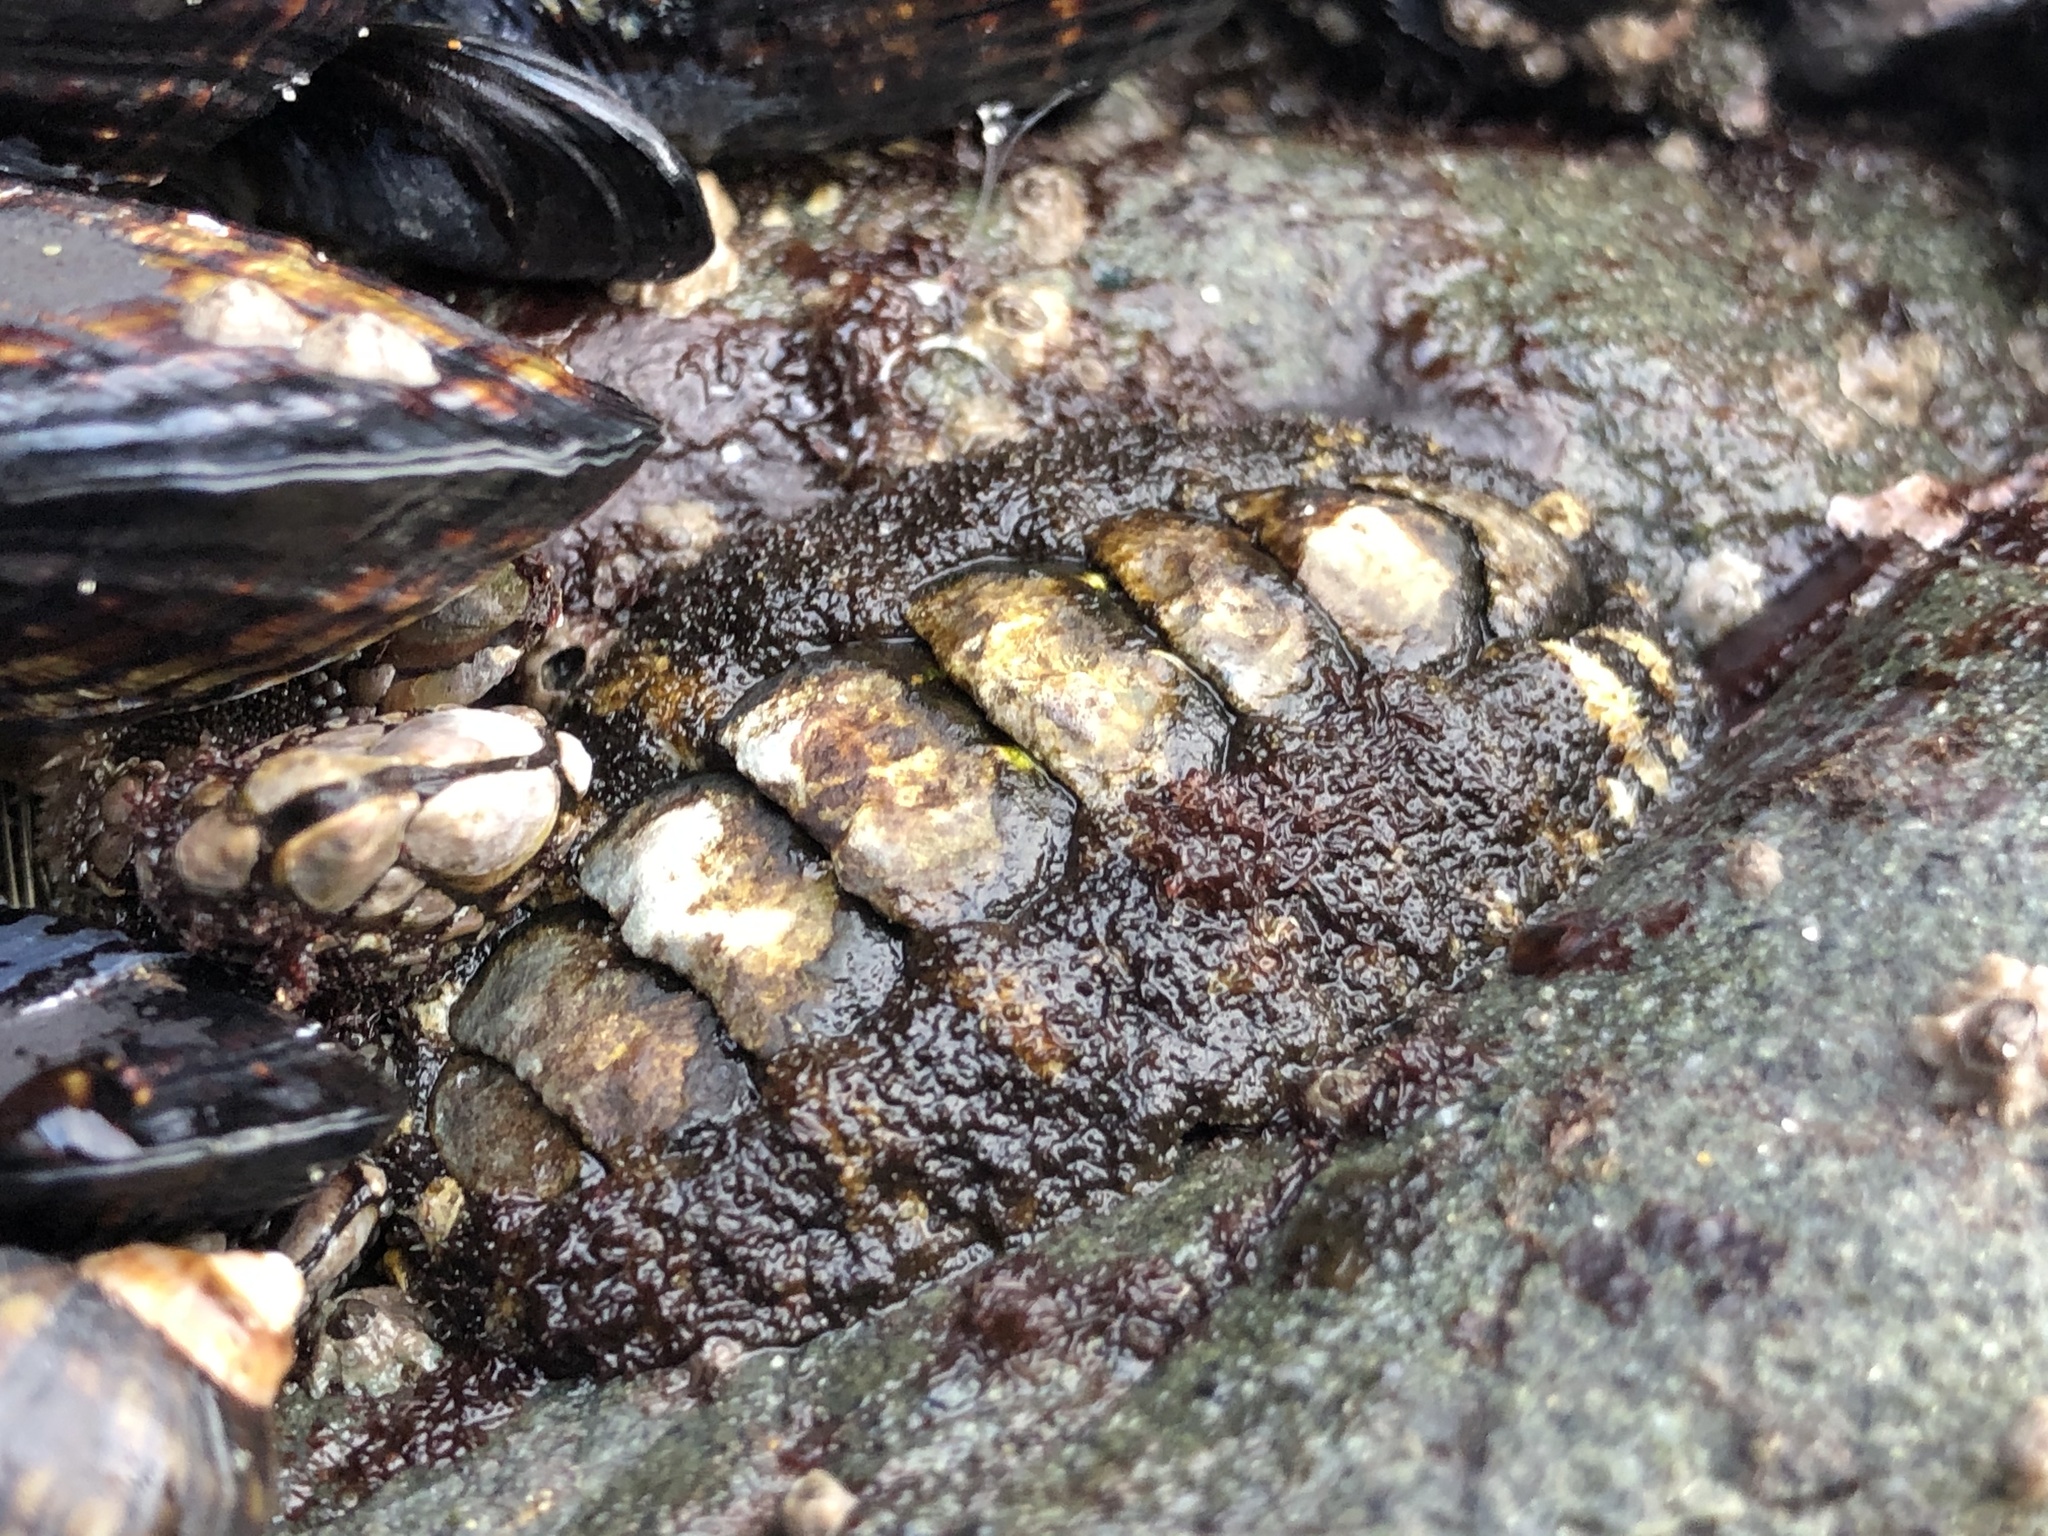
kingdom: Animalia
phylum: Mollusca
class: Polyplacophora
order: Chitonida
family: Tonicellidae
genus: Nuttallina
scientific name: Nuttallina californica
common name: California nuttall chiton
